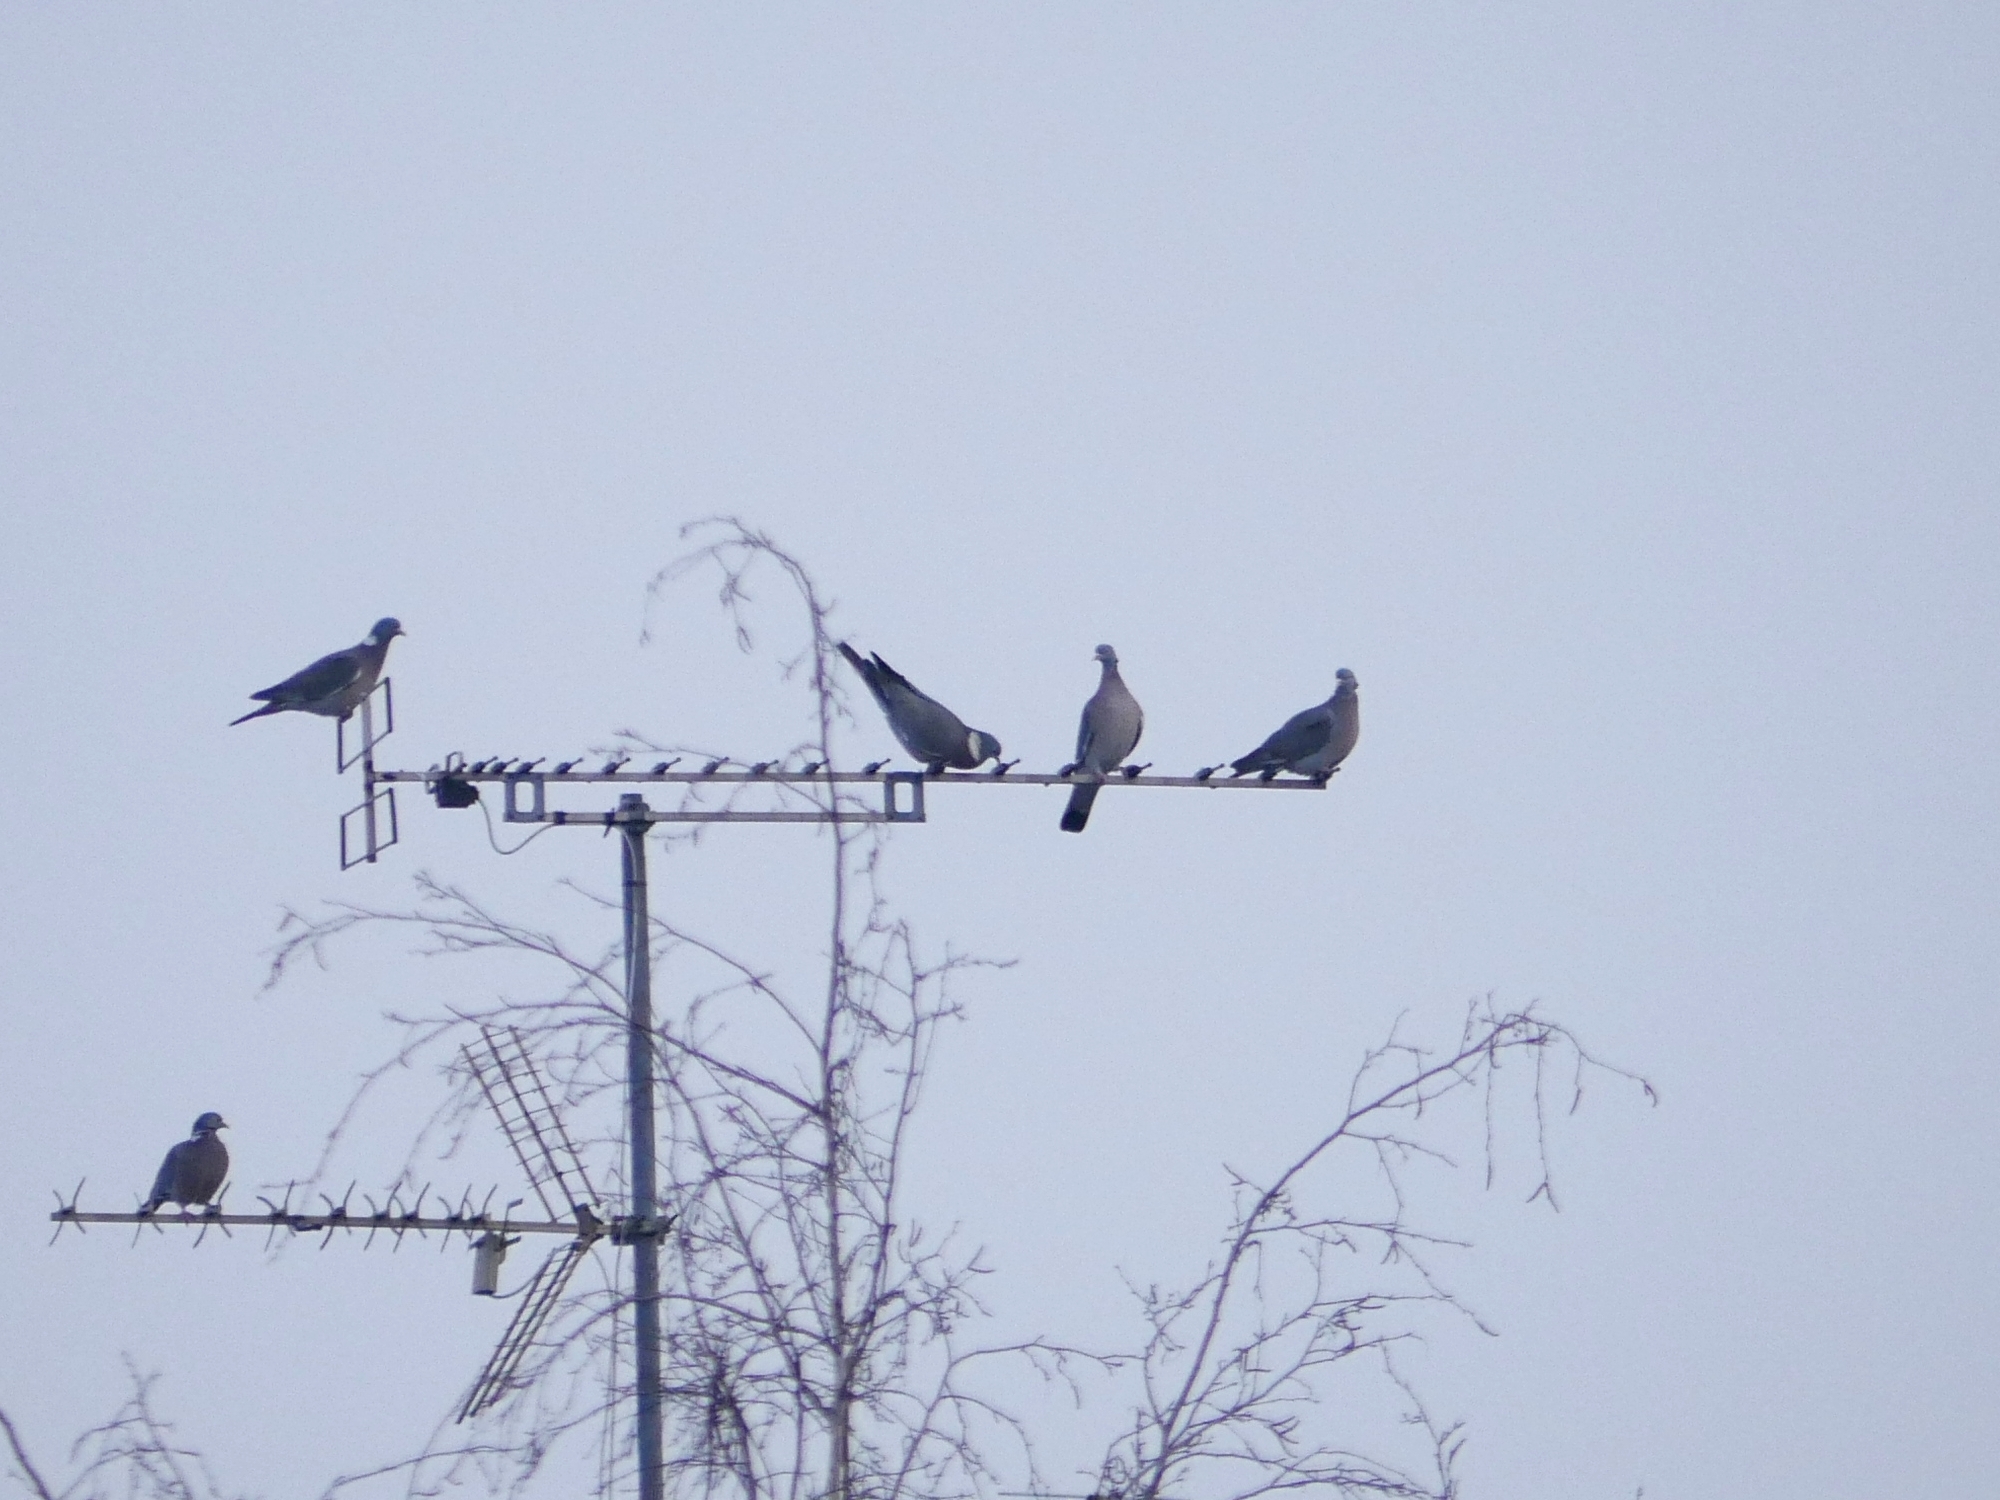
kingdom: Animalia
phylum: Chordata
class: Aves
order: Columbiformes
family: Columbidae
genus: Columba
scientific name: Columba palumbus
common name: Common wood pigeon
